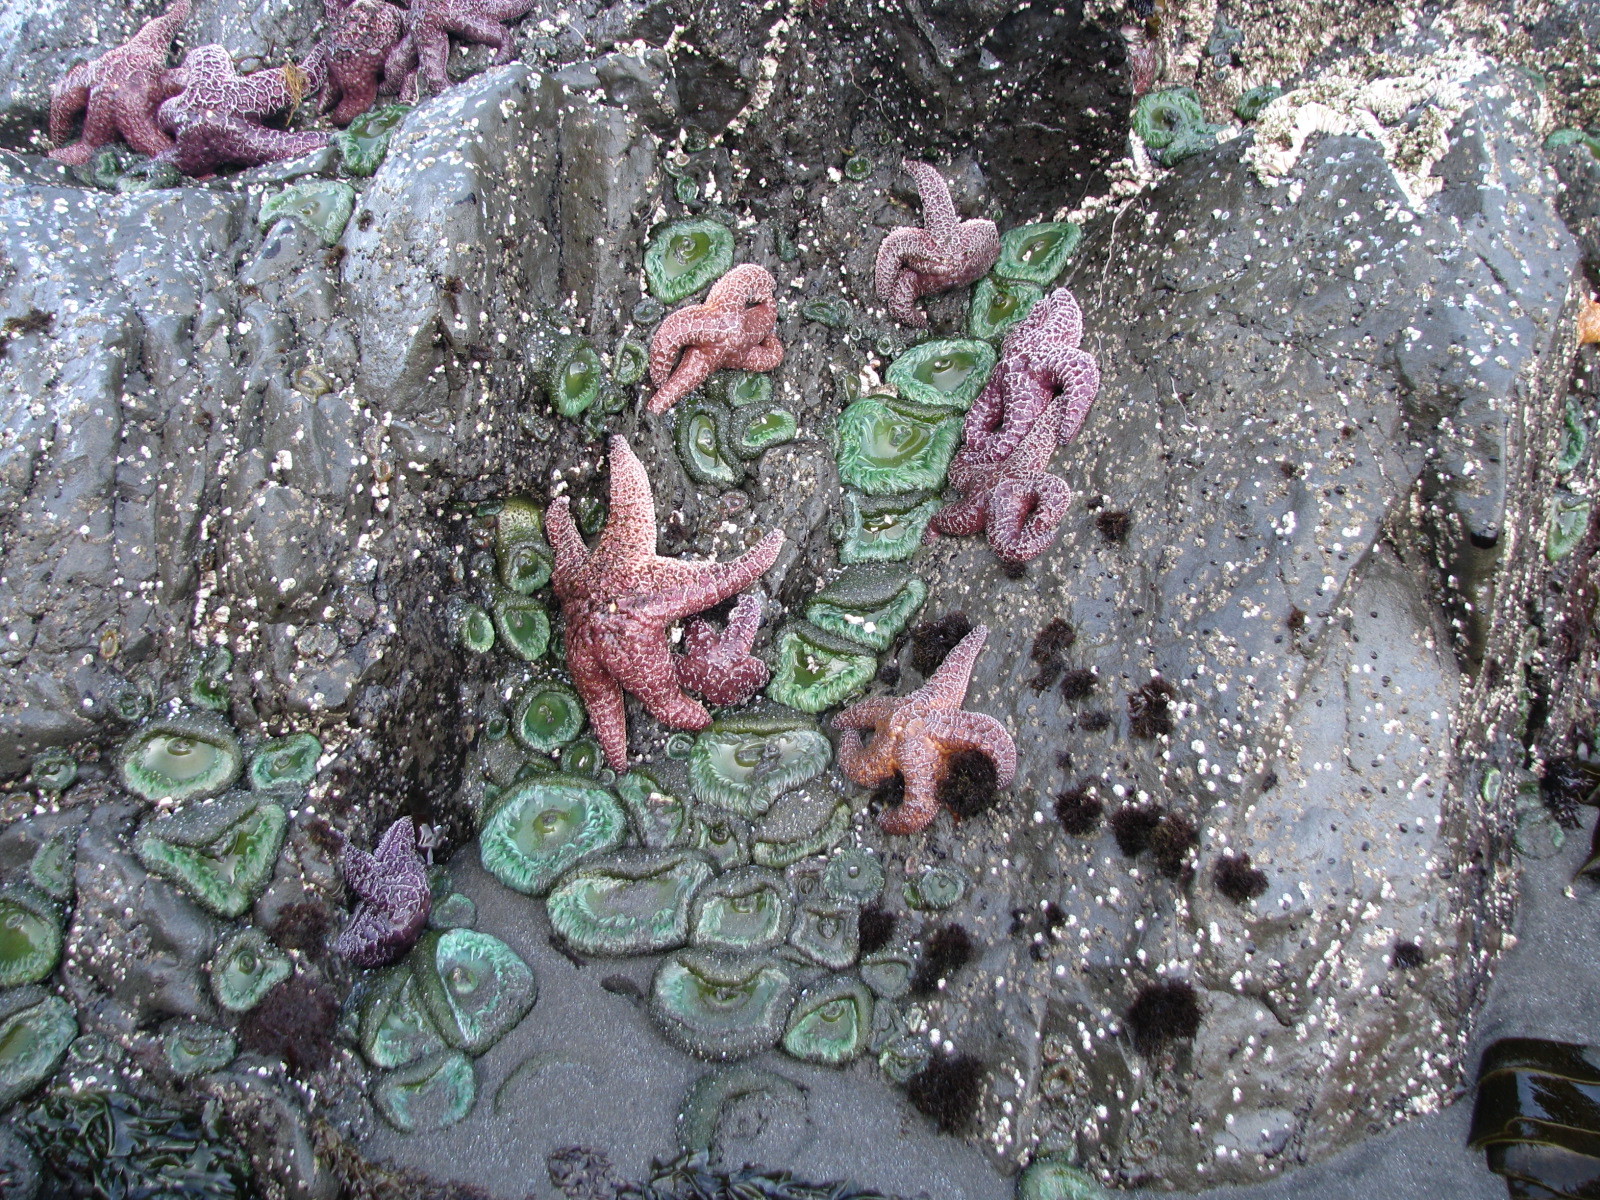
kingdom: Animalia
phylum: Cnidaria
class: Anthozoa
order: Actiniaria
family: Actiniidae
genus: Anthopleura
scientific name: Anthopleura xanthogrammica
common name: Giant green anemone
